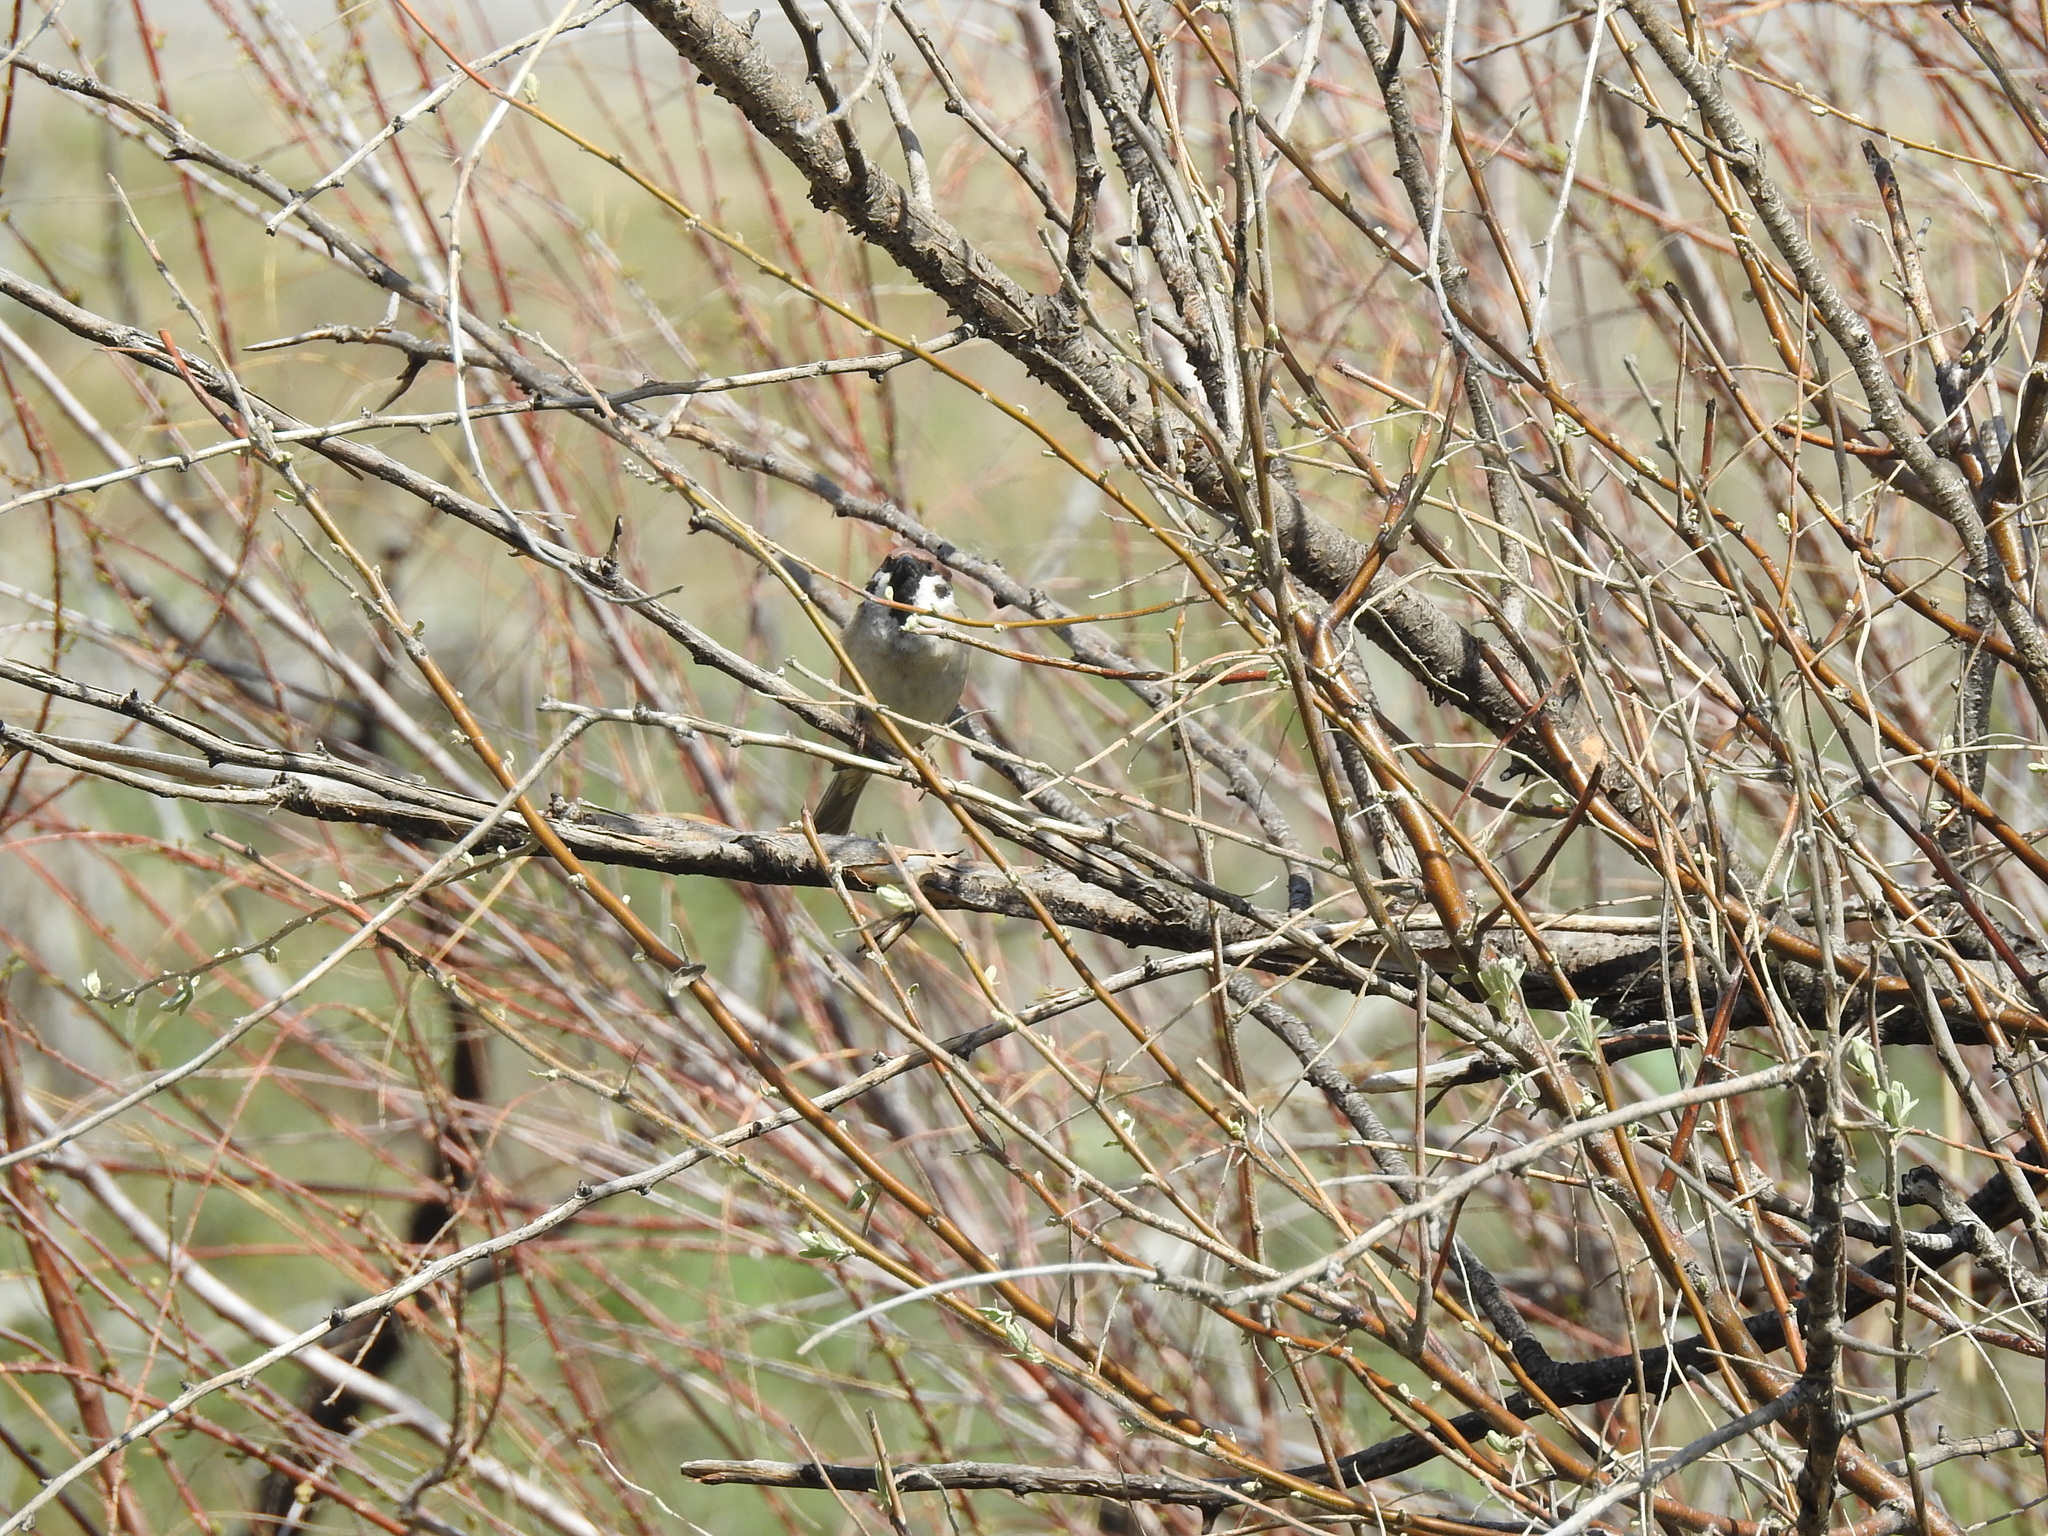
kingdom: Animalia
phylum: Chordata
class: Aves
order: Passeriformes
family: Passeridae
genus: Passer
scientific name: Passer montanus
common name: Eurasian tree sparrow
